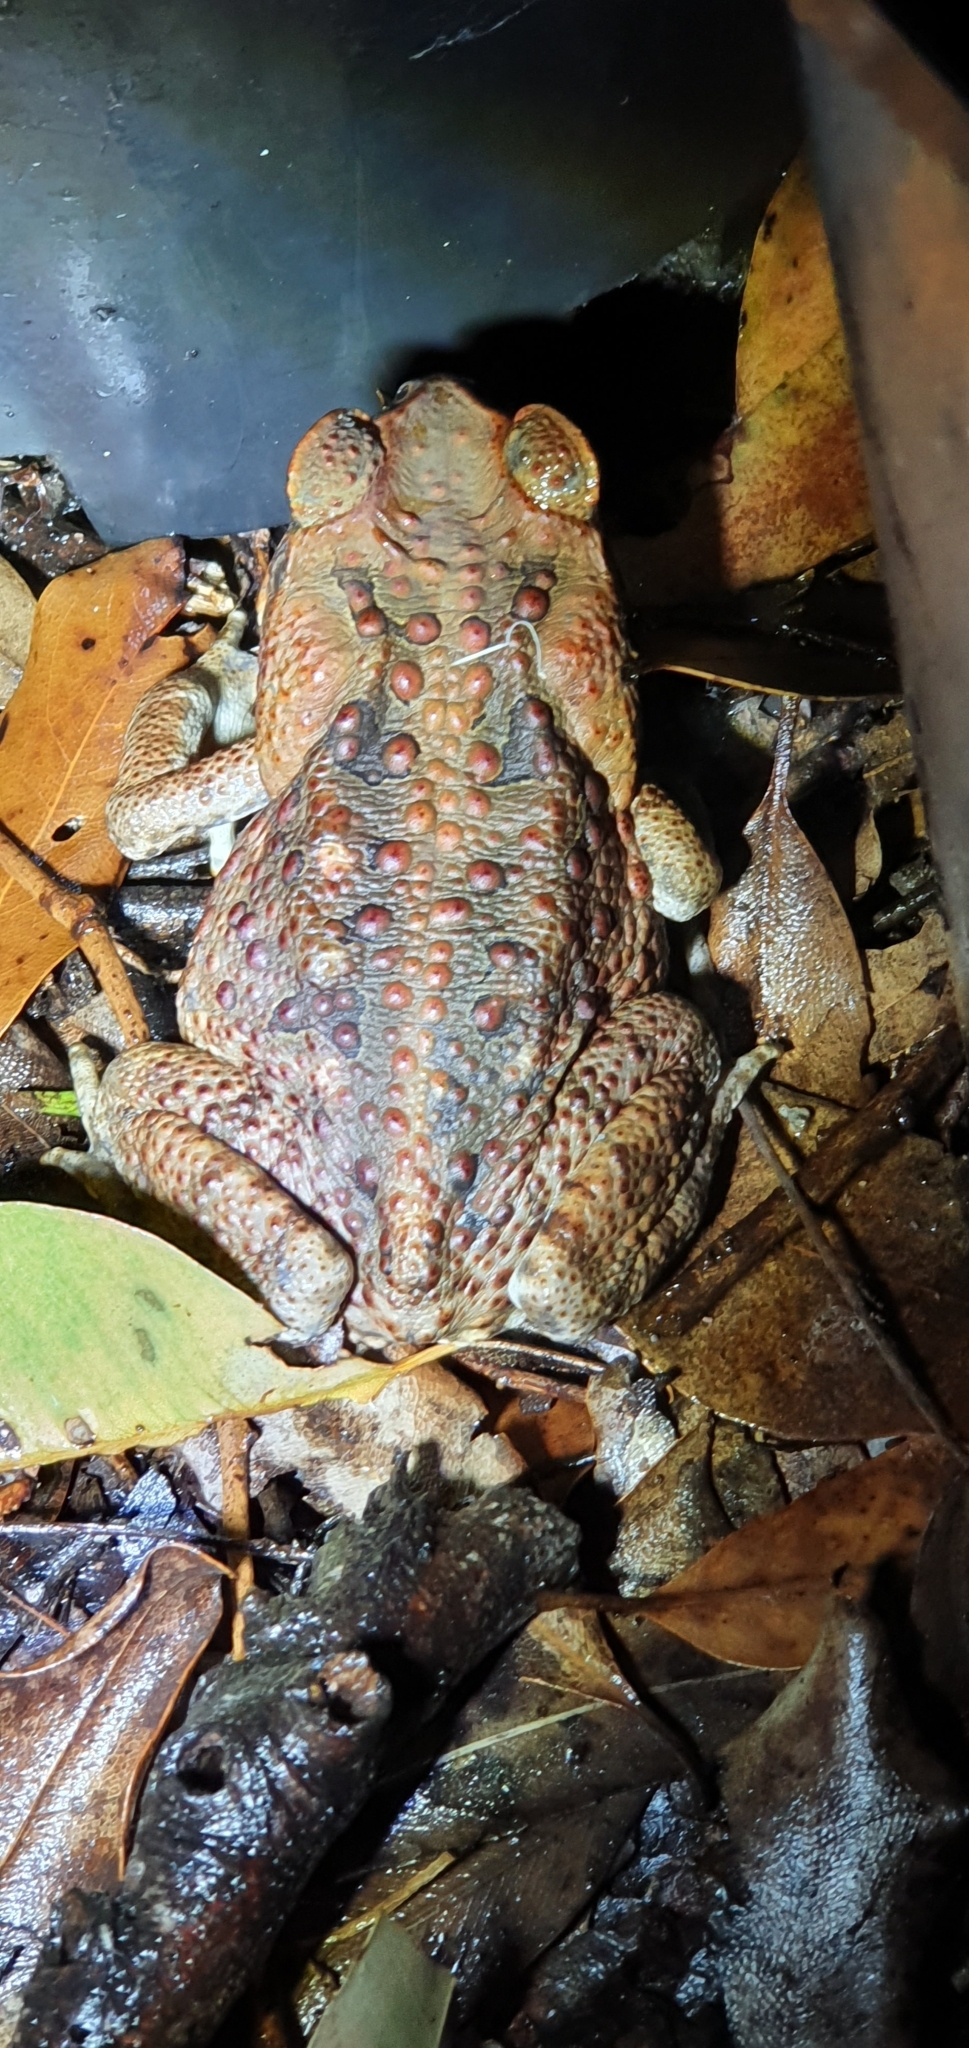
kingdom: Animalia
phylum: Chordata
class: Amphibia
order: Anura
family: Bufonidae
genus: Rhinella
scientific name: Rhinella marina
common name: Cane toad
